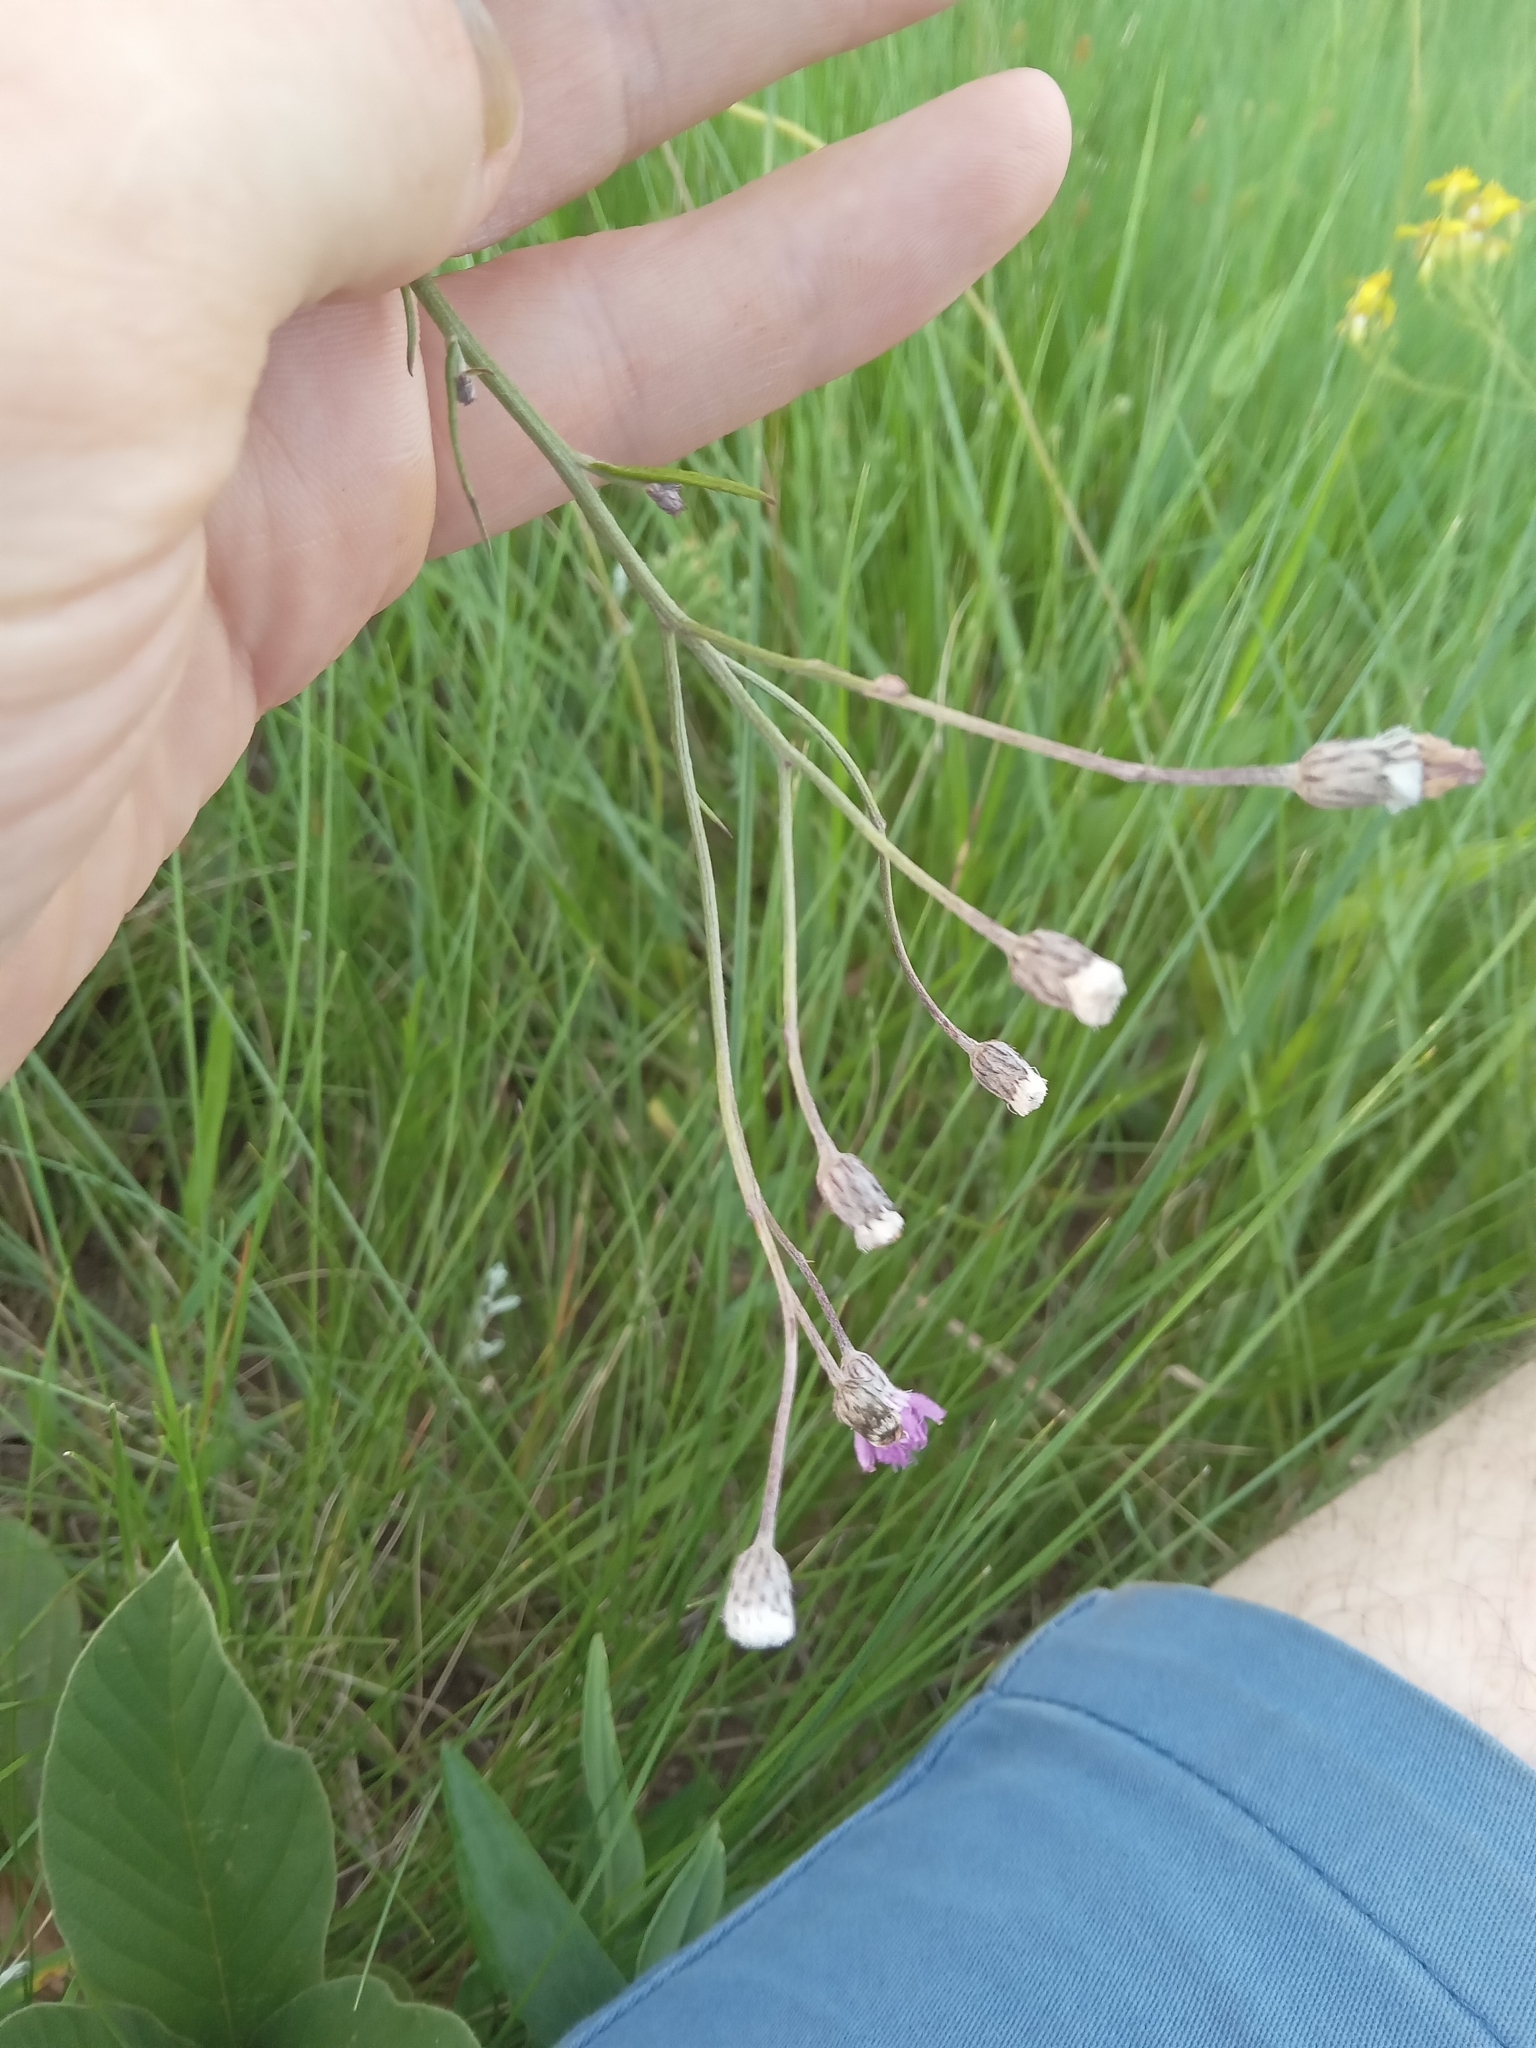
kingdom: Plantae
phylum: Tracheophyta
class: Magnoliopsida
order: Asterales
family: Asteraceae
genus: Hilliardiella
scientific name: Hilliardiella capensis
